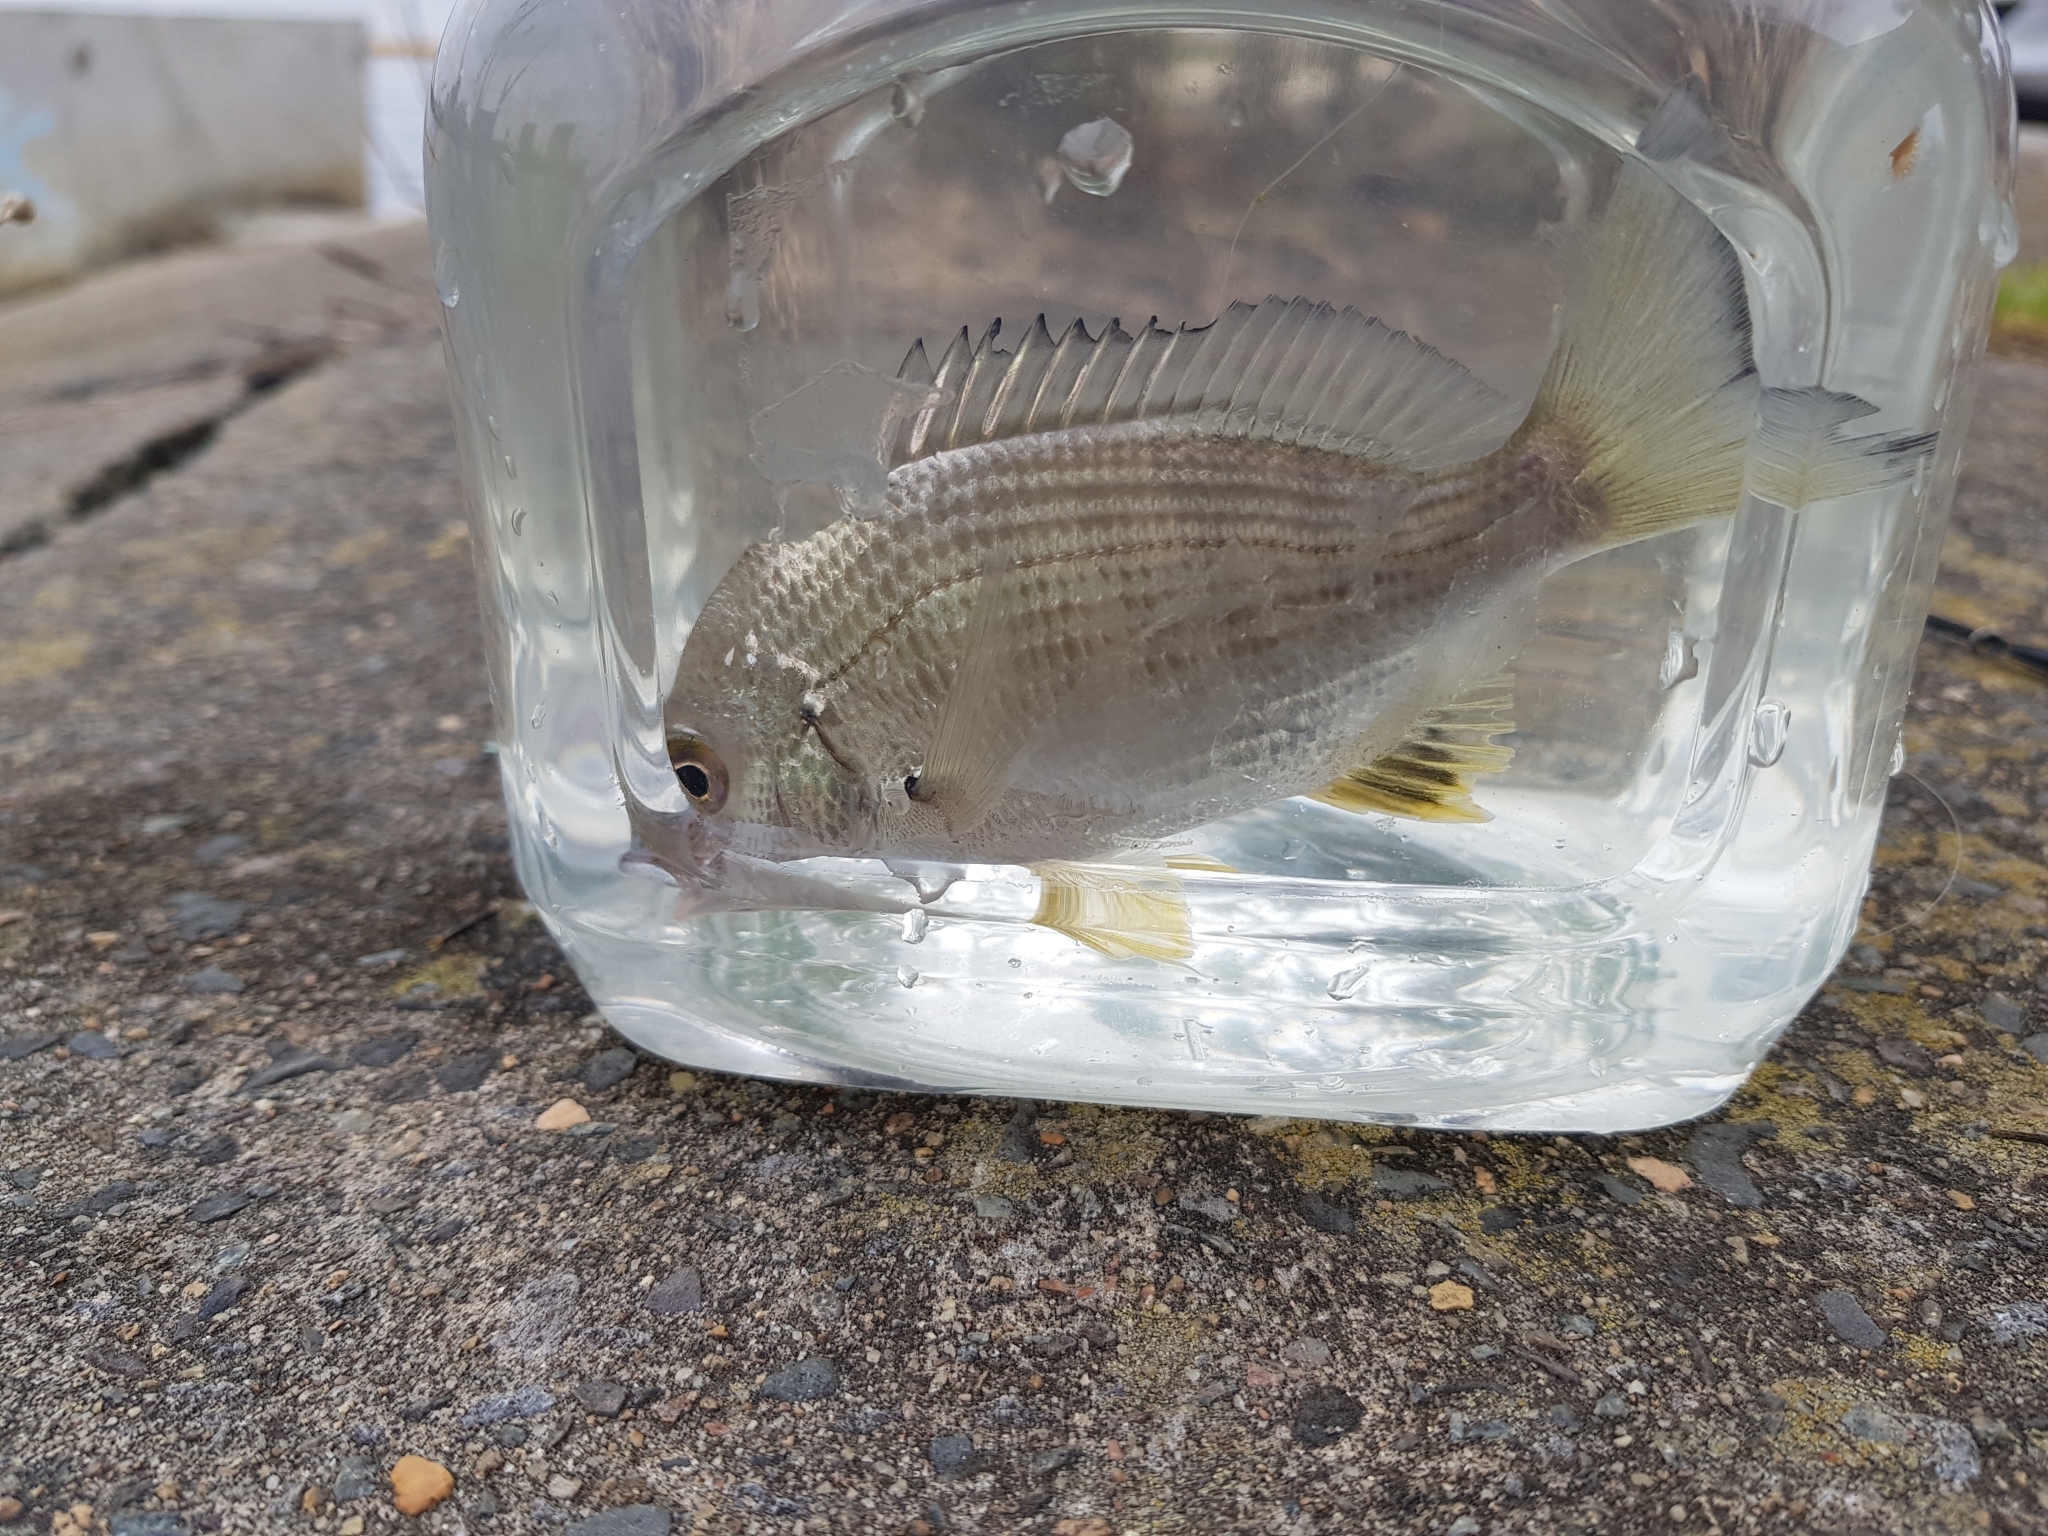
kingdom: Animalia
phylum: Chordata
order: Perciformes
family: Sparidae
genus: Acanthopagrus
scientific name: Acanthopagrus australis
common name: Surf bream
